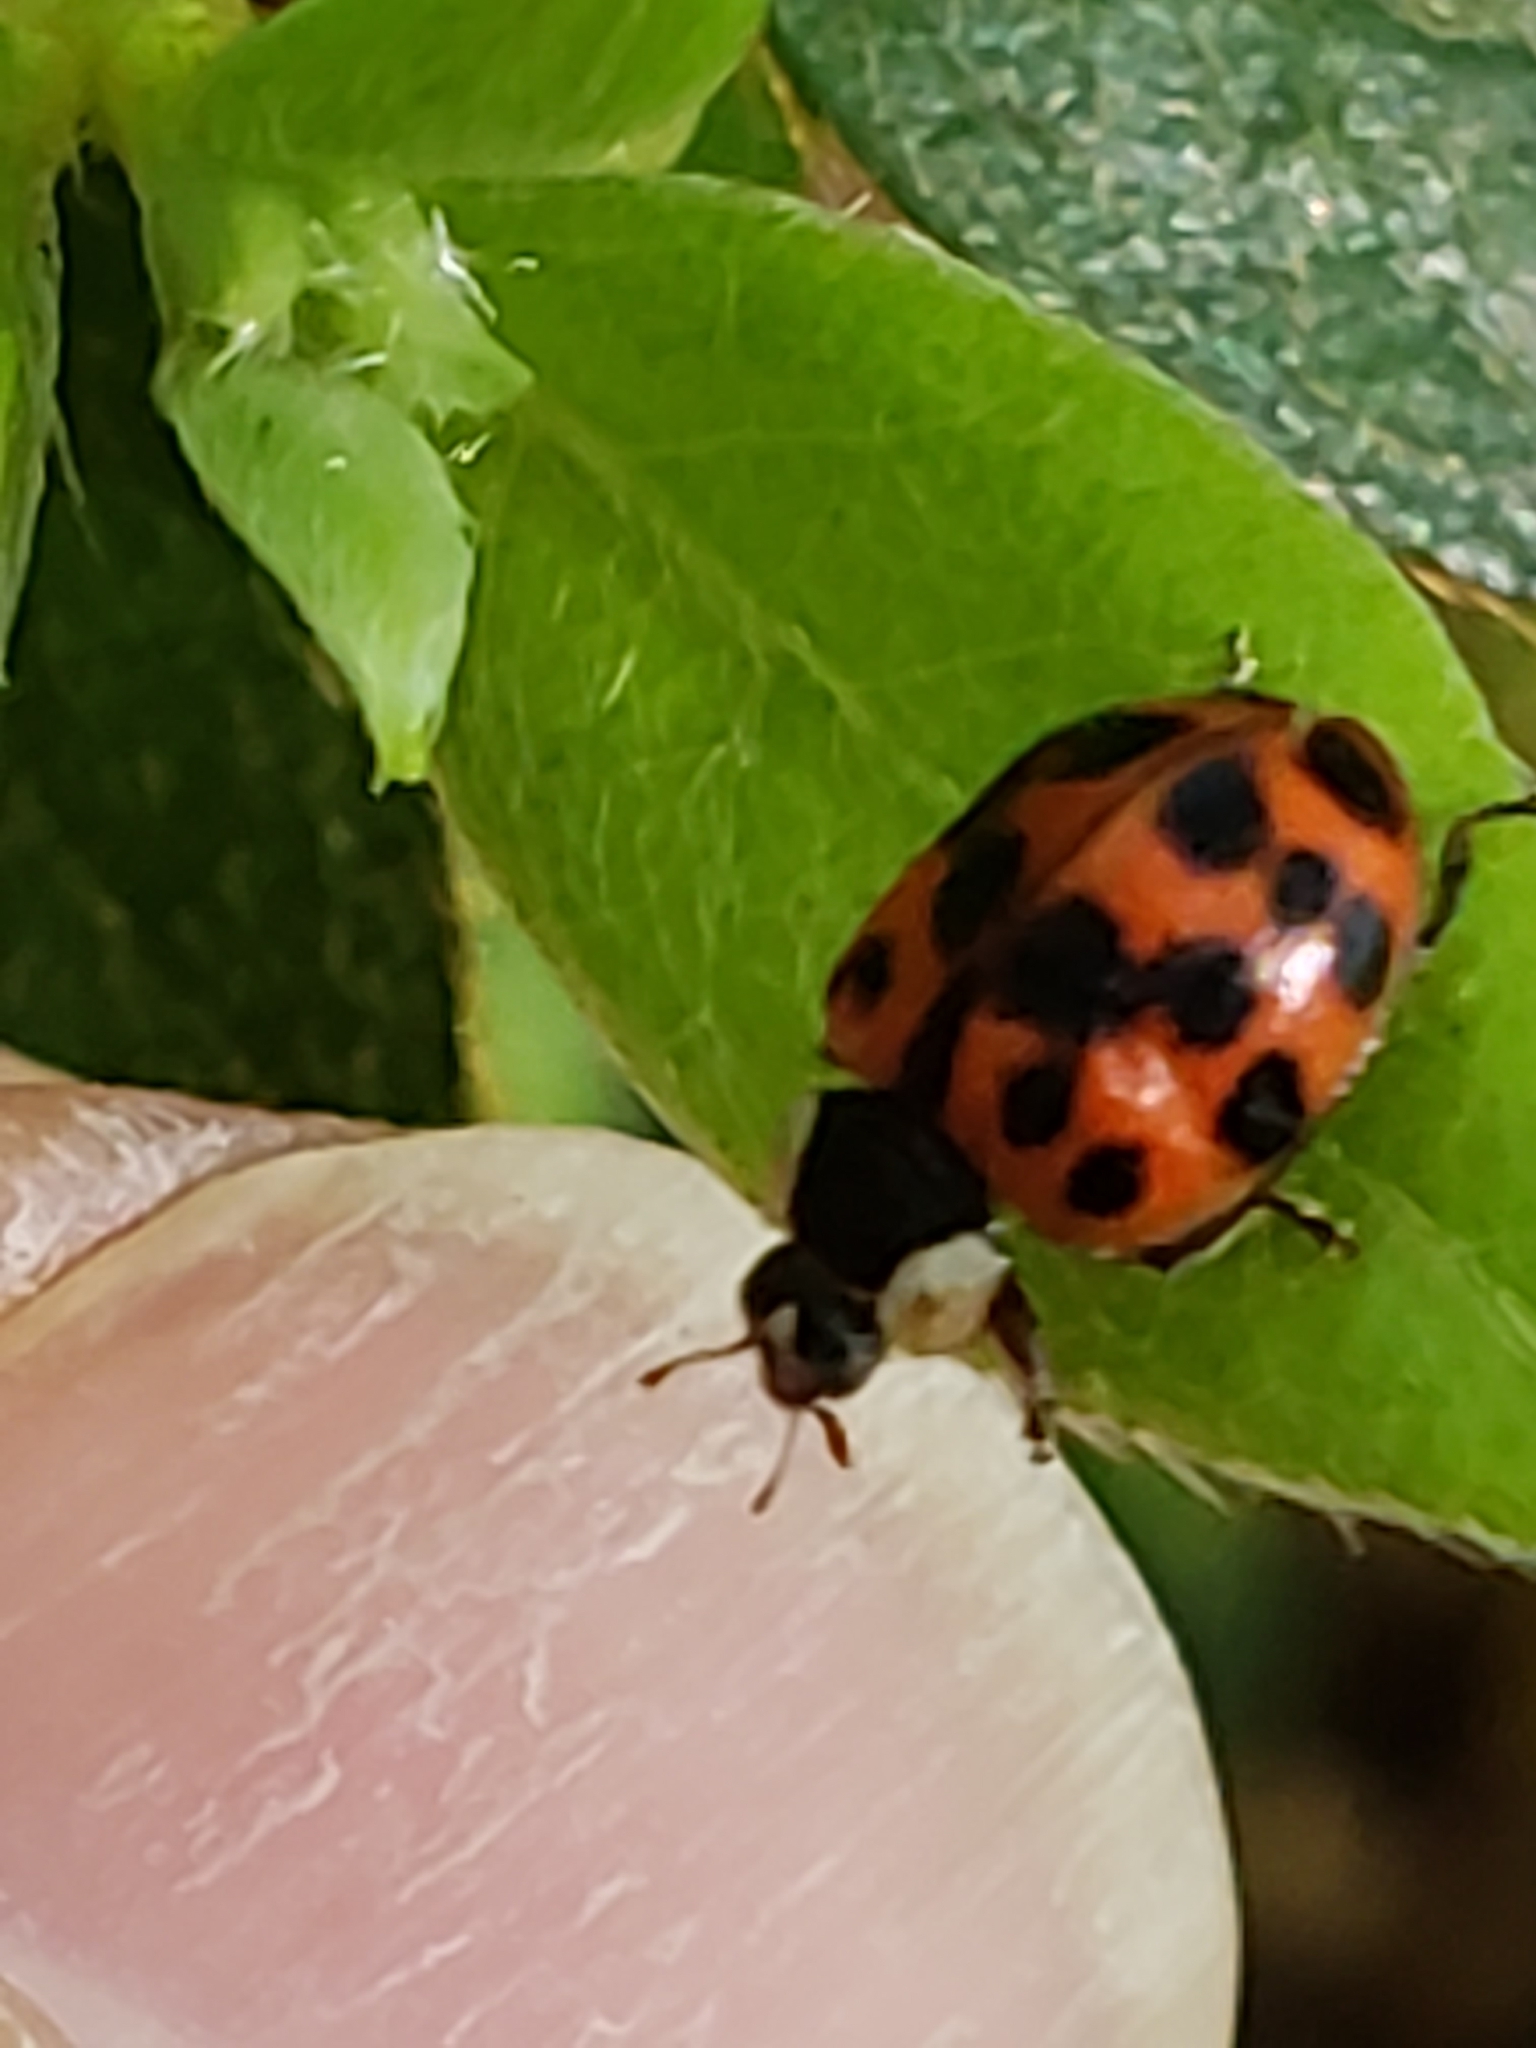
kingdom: Animalia
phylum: Arthropoda
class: Insecta
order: Coleoptera
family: Coccinellidae
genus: Harmonia
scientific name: Harmonia axyridis
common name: Harlequin ladybird
